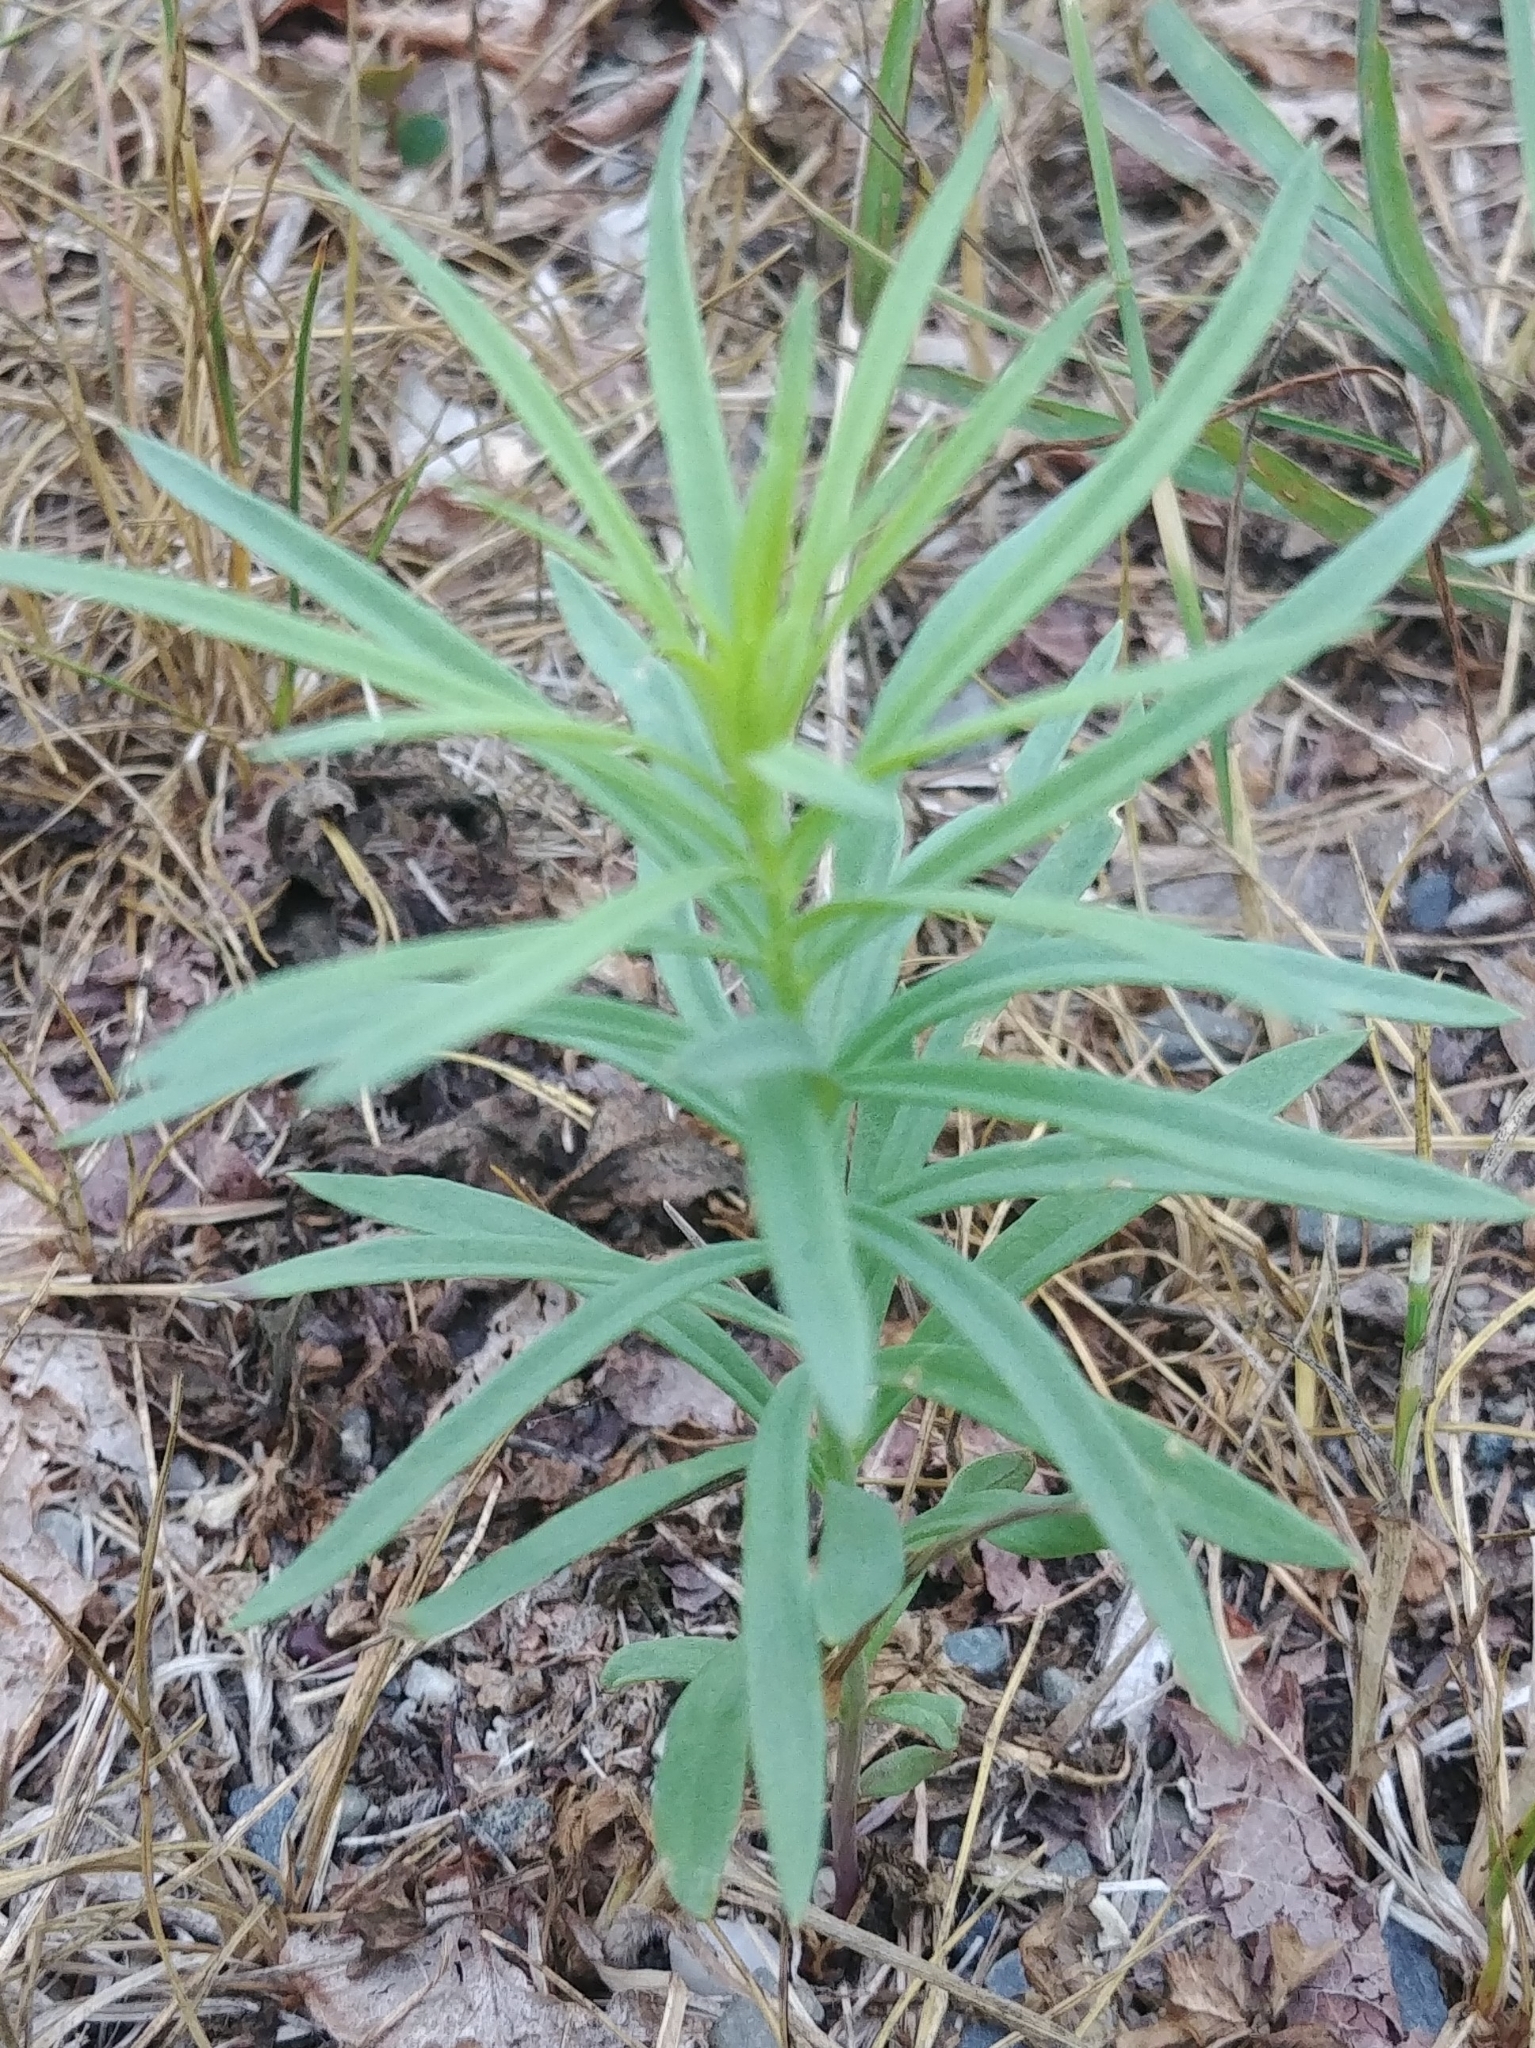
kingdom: Plantae
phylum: Tracheophyta
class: Magnoliopsida
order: Myrtales
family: Onagraceae
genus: Chamaenerion
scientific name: Chamaenerion angustifolium
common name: Fireweed
